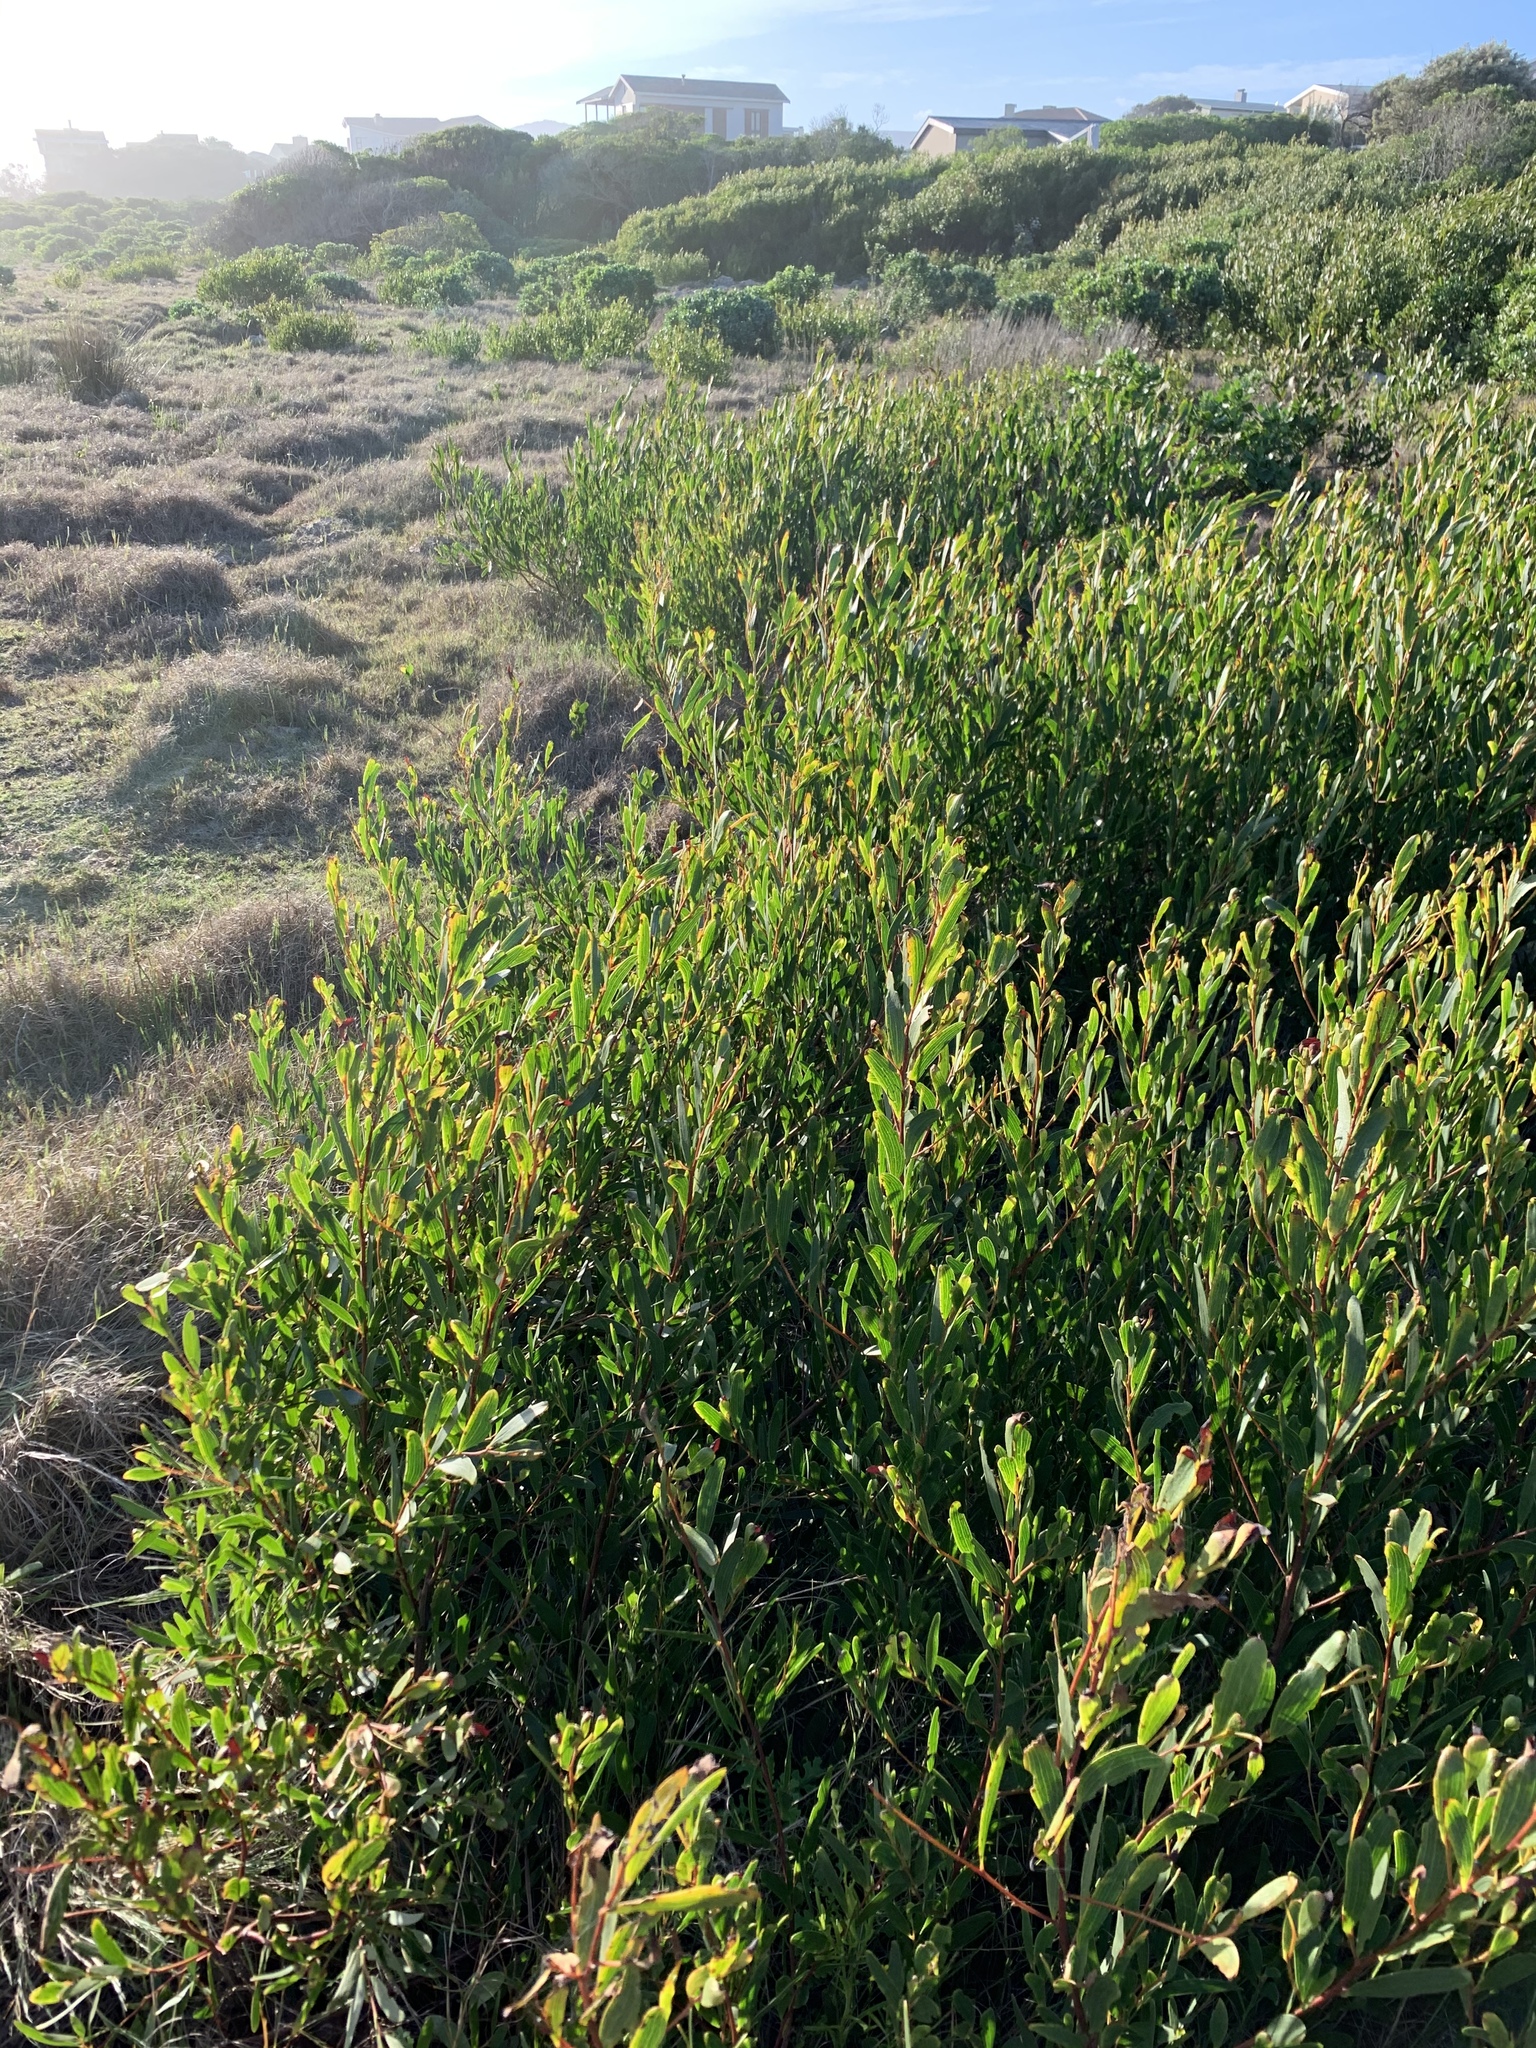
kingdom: Plantae
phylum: Tracheophyta
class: Magnoliopsida
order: Fabales
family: Fabaceae
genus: Acacia
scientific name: Acacia cyclops
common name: Coastal wattle
